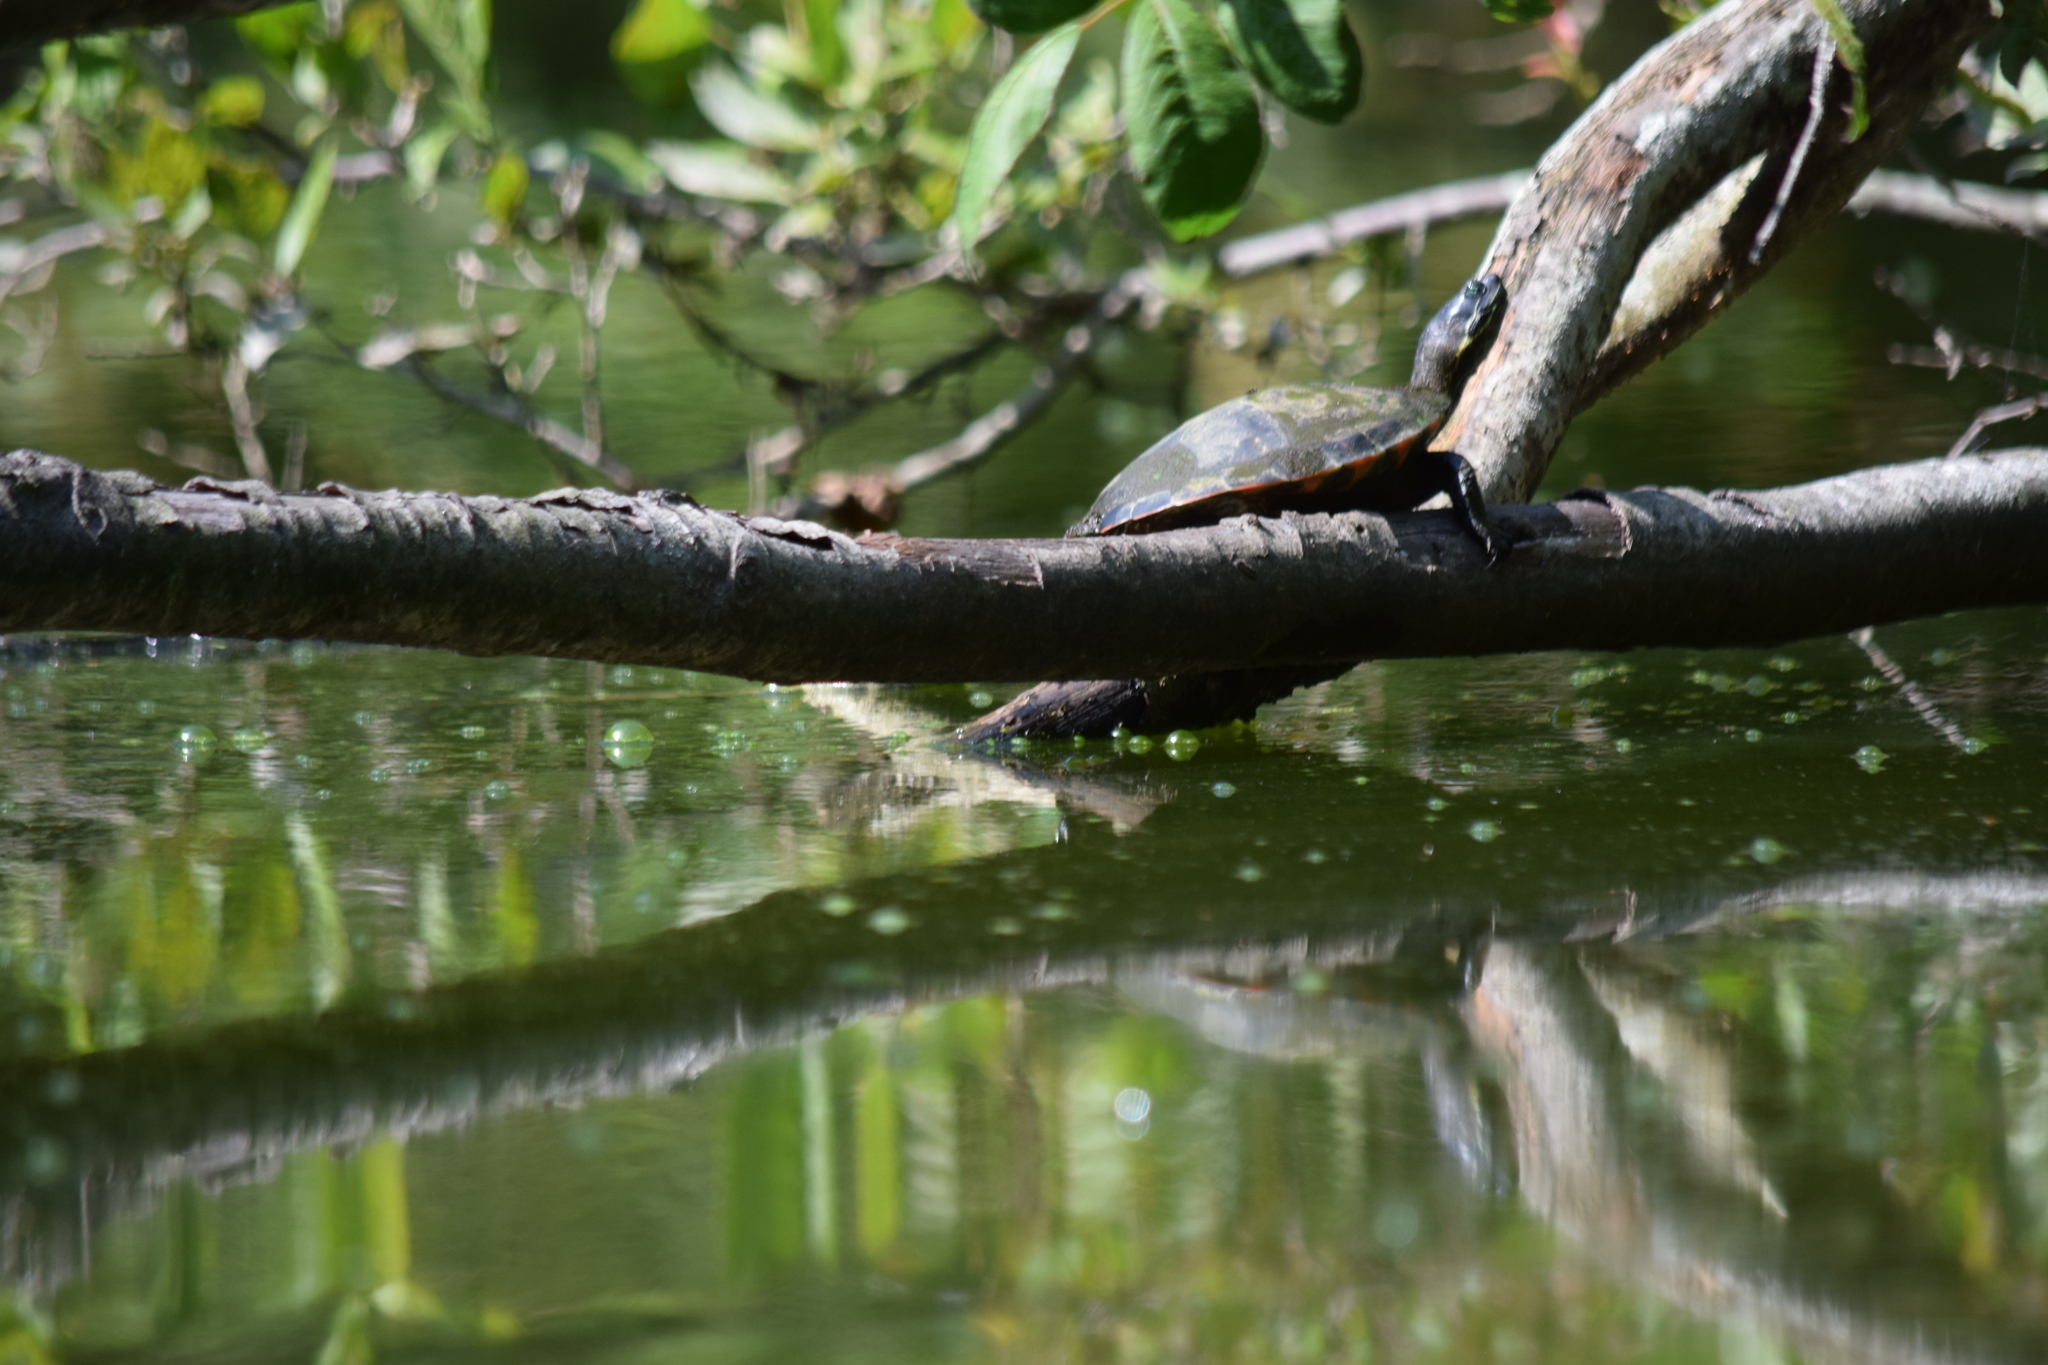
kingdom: Animalia
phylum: Chordata
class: Testudines
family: Emydidae
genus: Pseudemys
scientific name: Pseudemys rubriventris
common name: American red-bellied turtle
